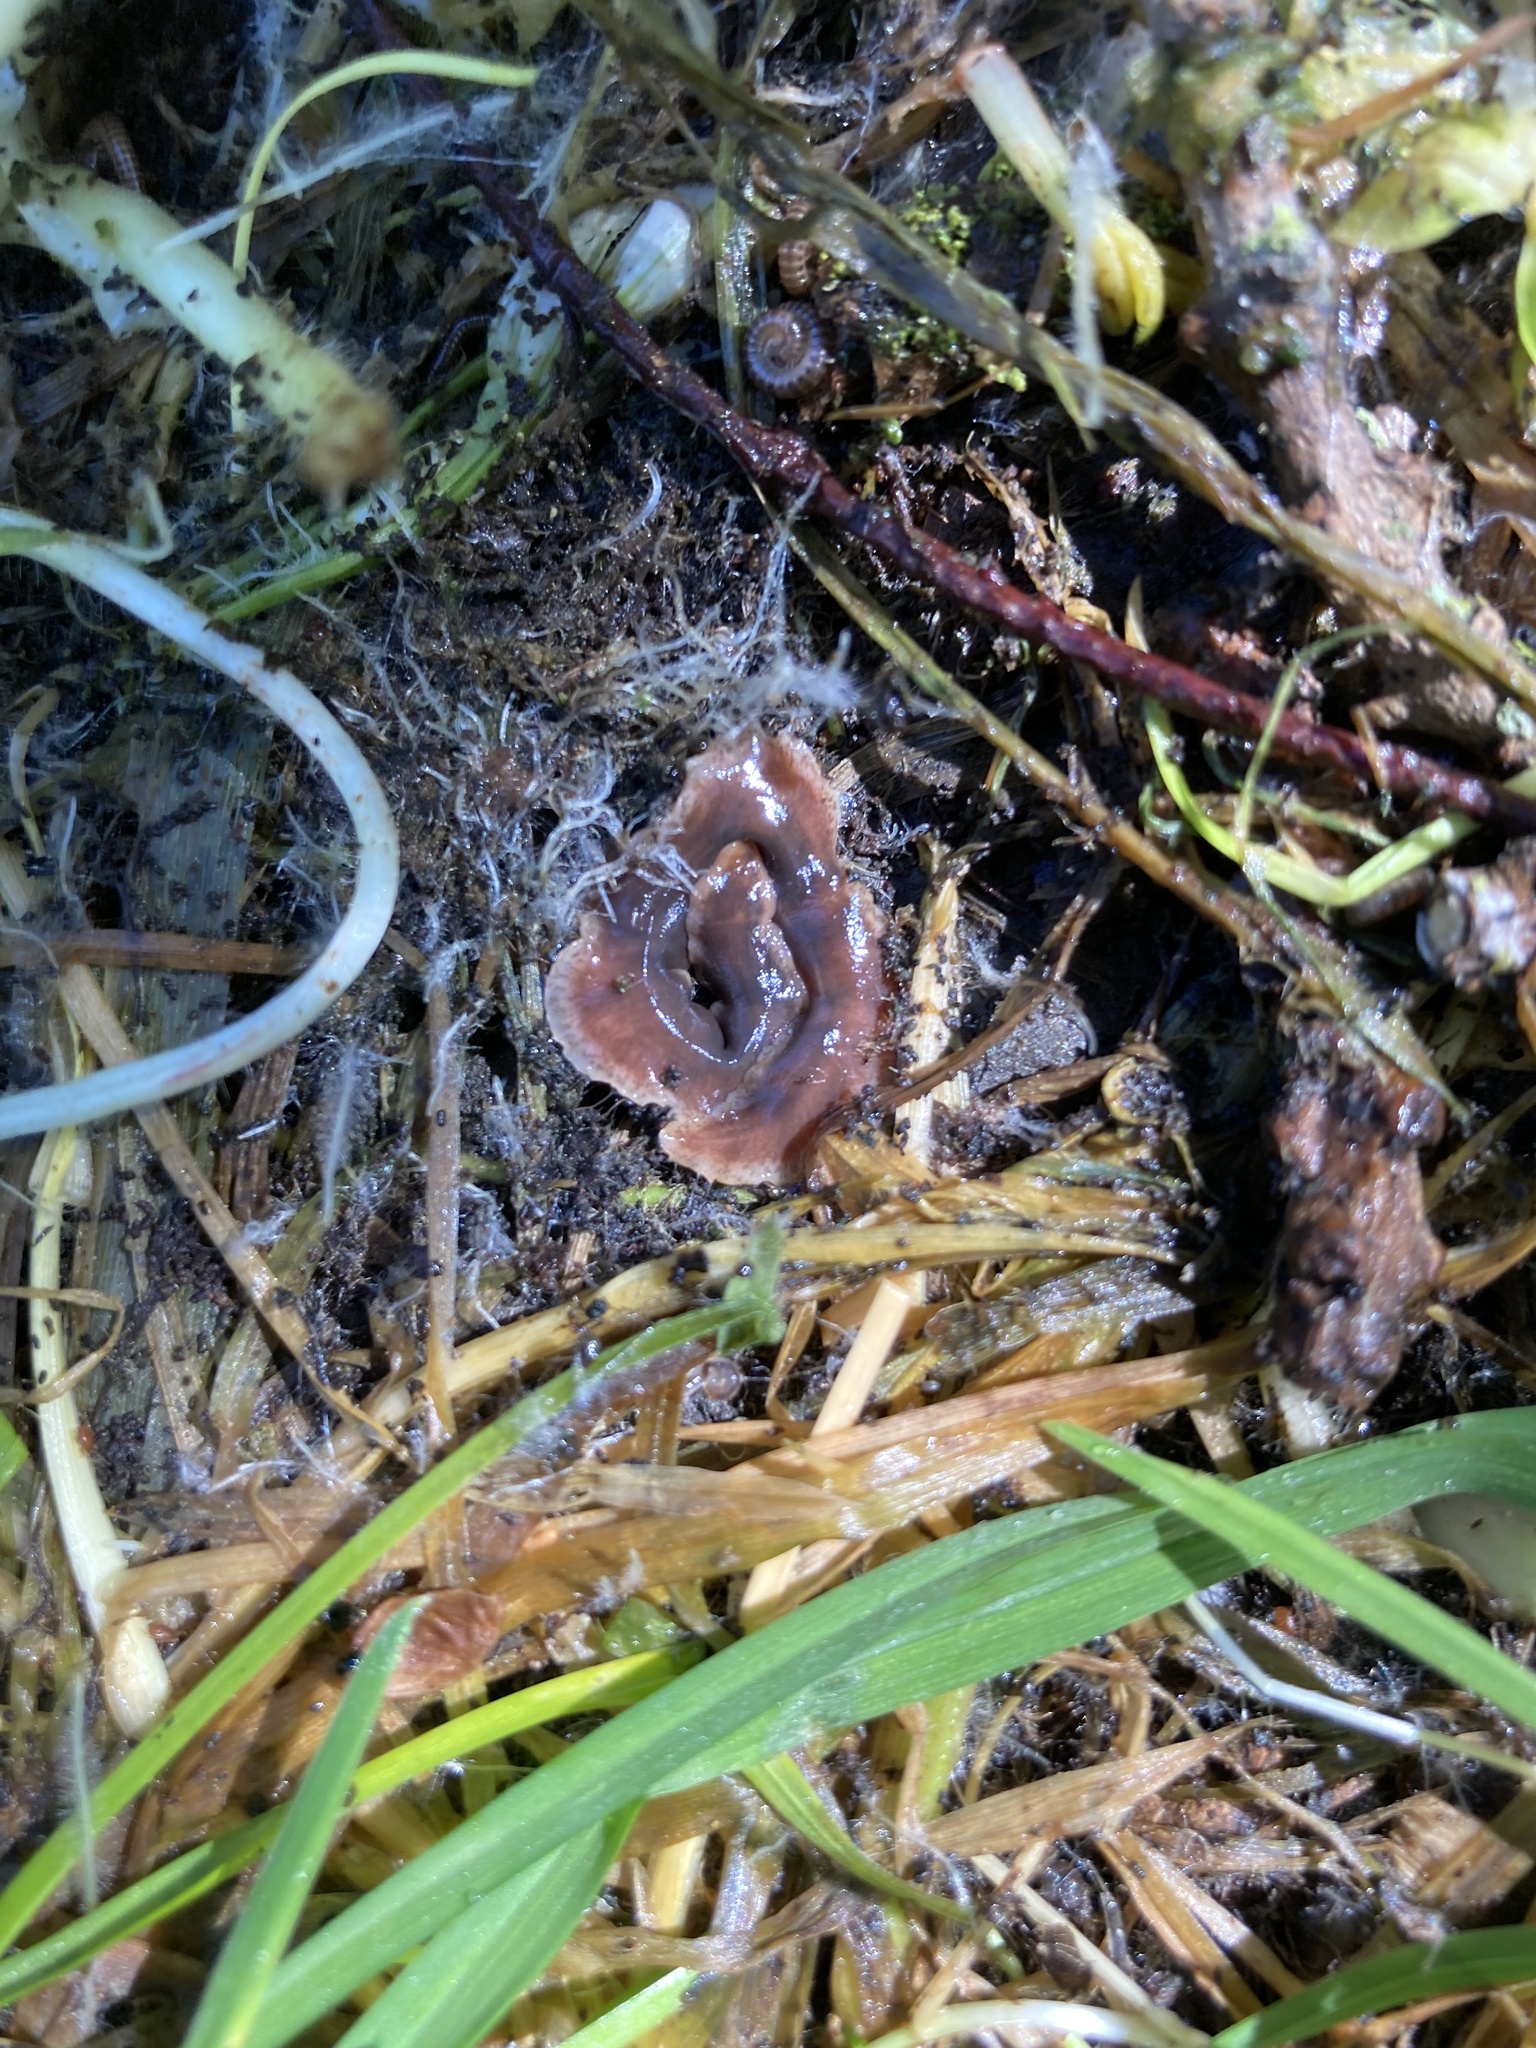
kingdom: Animalia
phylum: Platyhelminthes
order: Tricladida
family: Geoplanidae
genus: Arthurdendyus
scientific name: Arthurdendyus triangulatus
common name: New zealand flatworm
